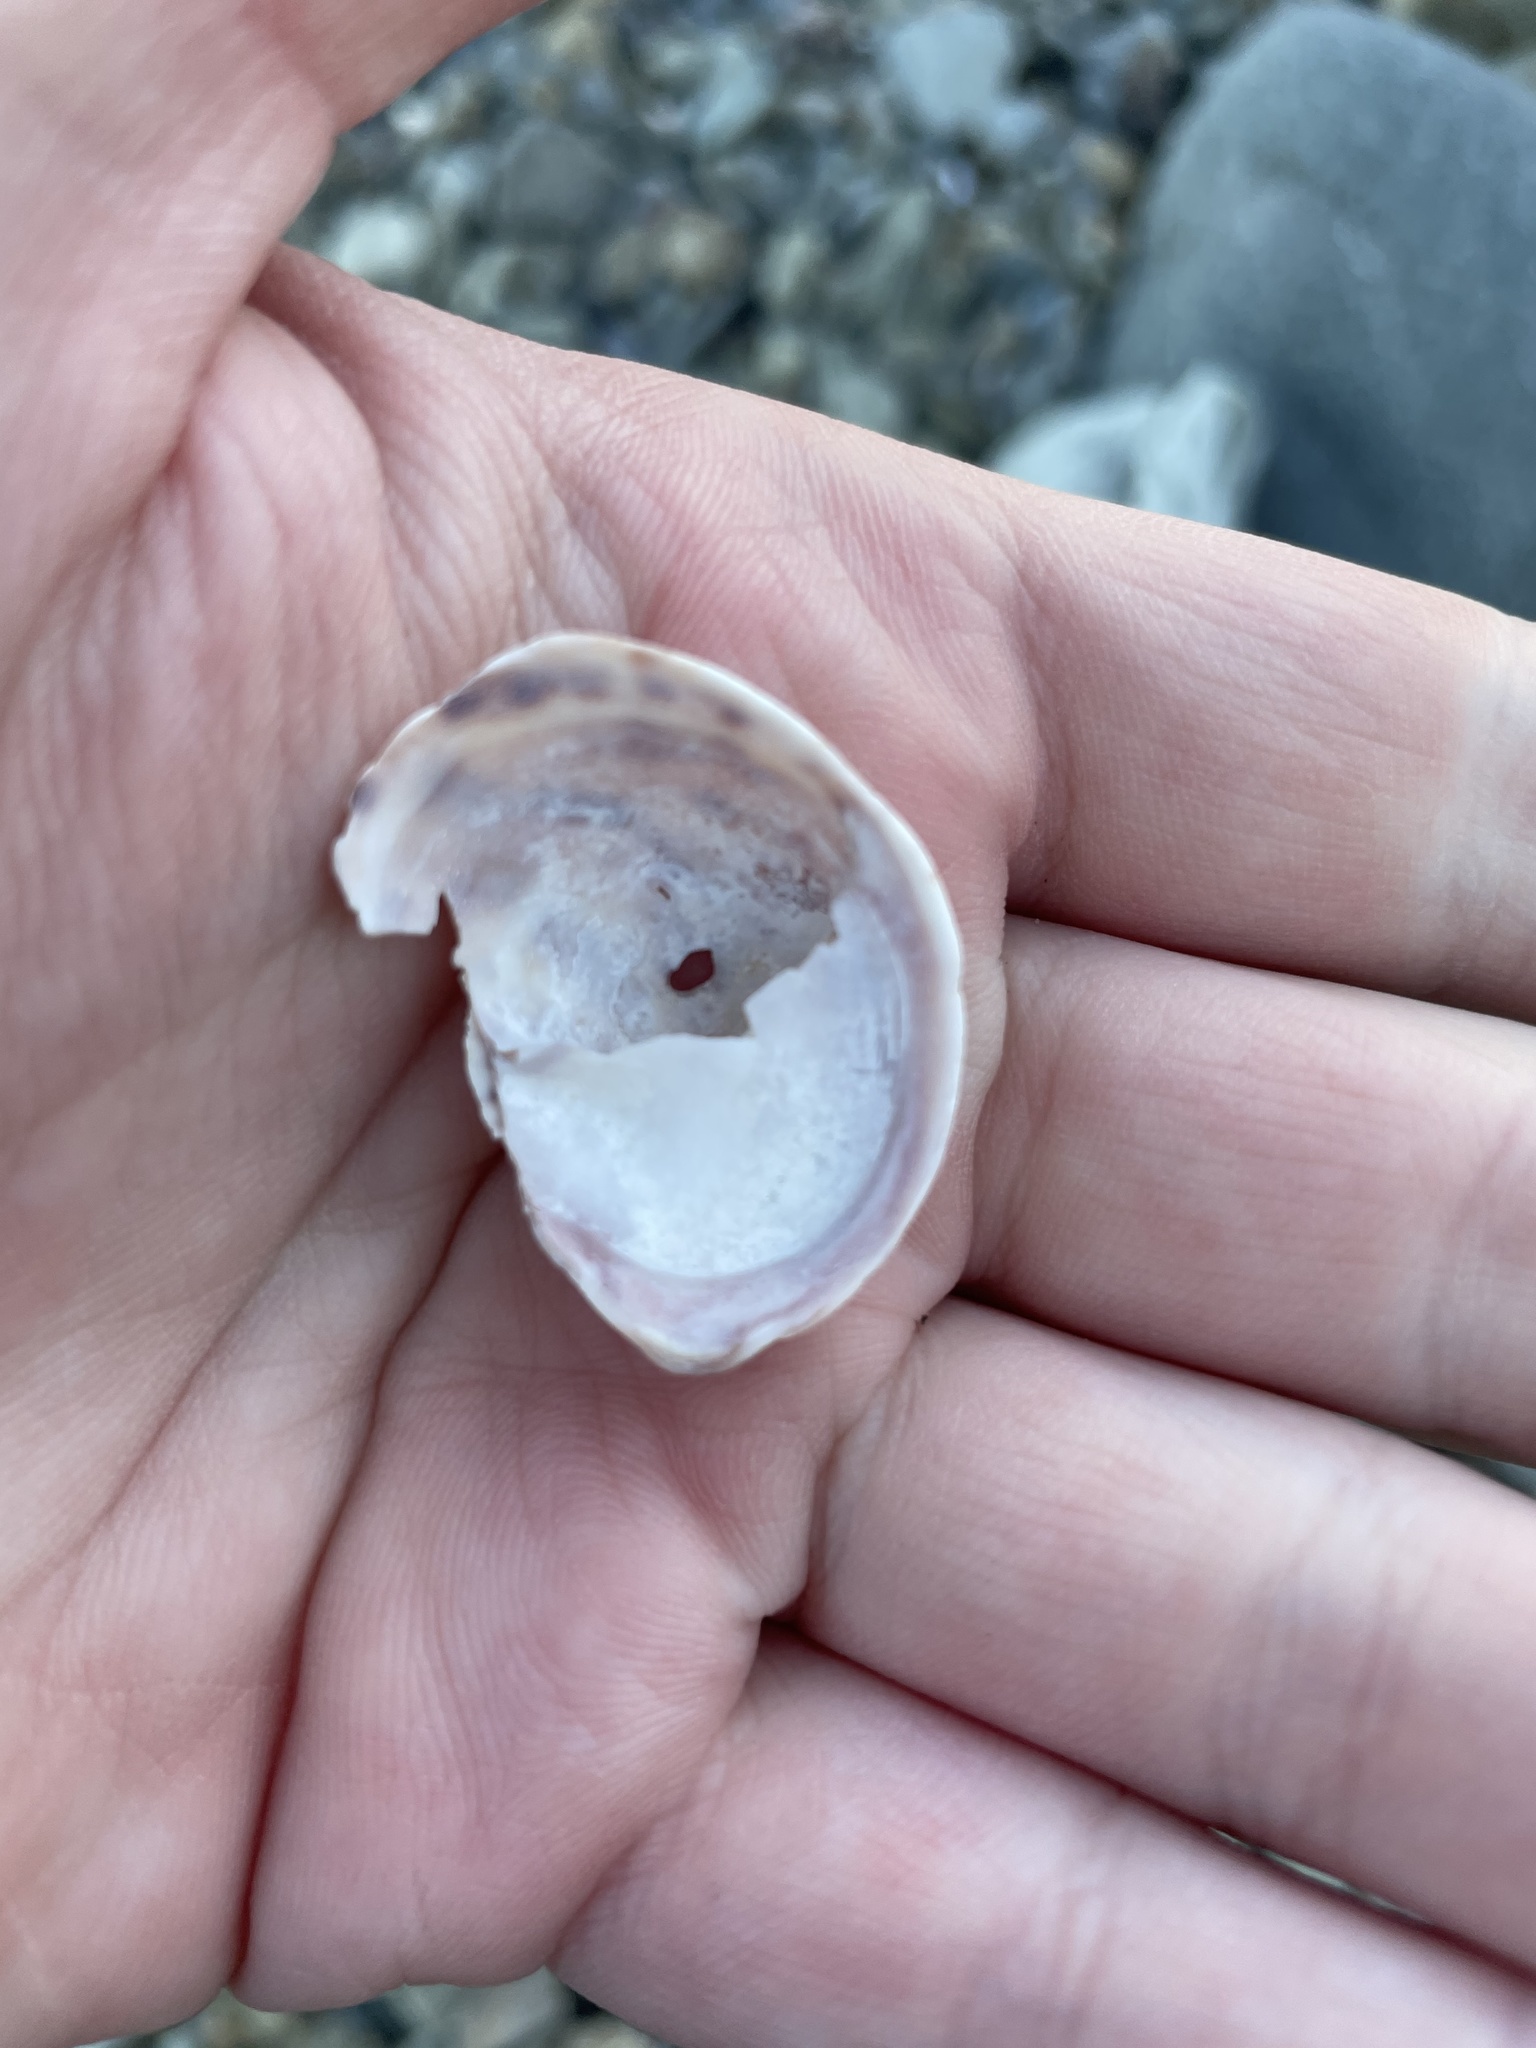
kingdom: Animalia
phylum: Mollusca
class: Gastropoda
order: Littorinimorpha
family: Calyptraeidae
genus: Crepidula
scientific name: Crepidula fornicata
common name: Slipper limpet
